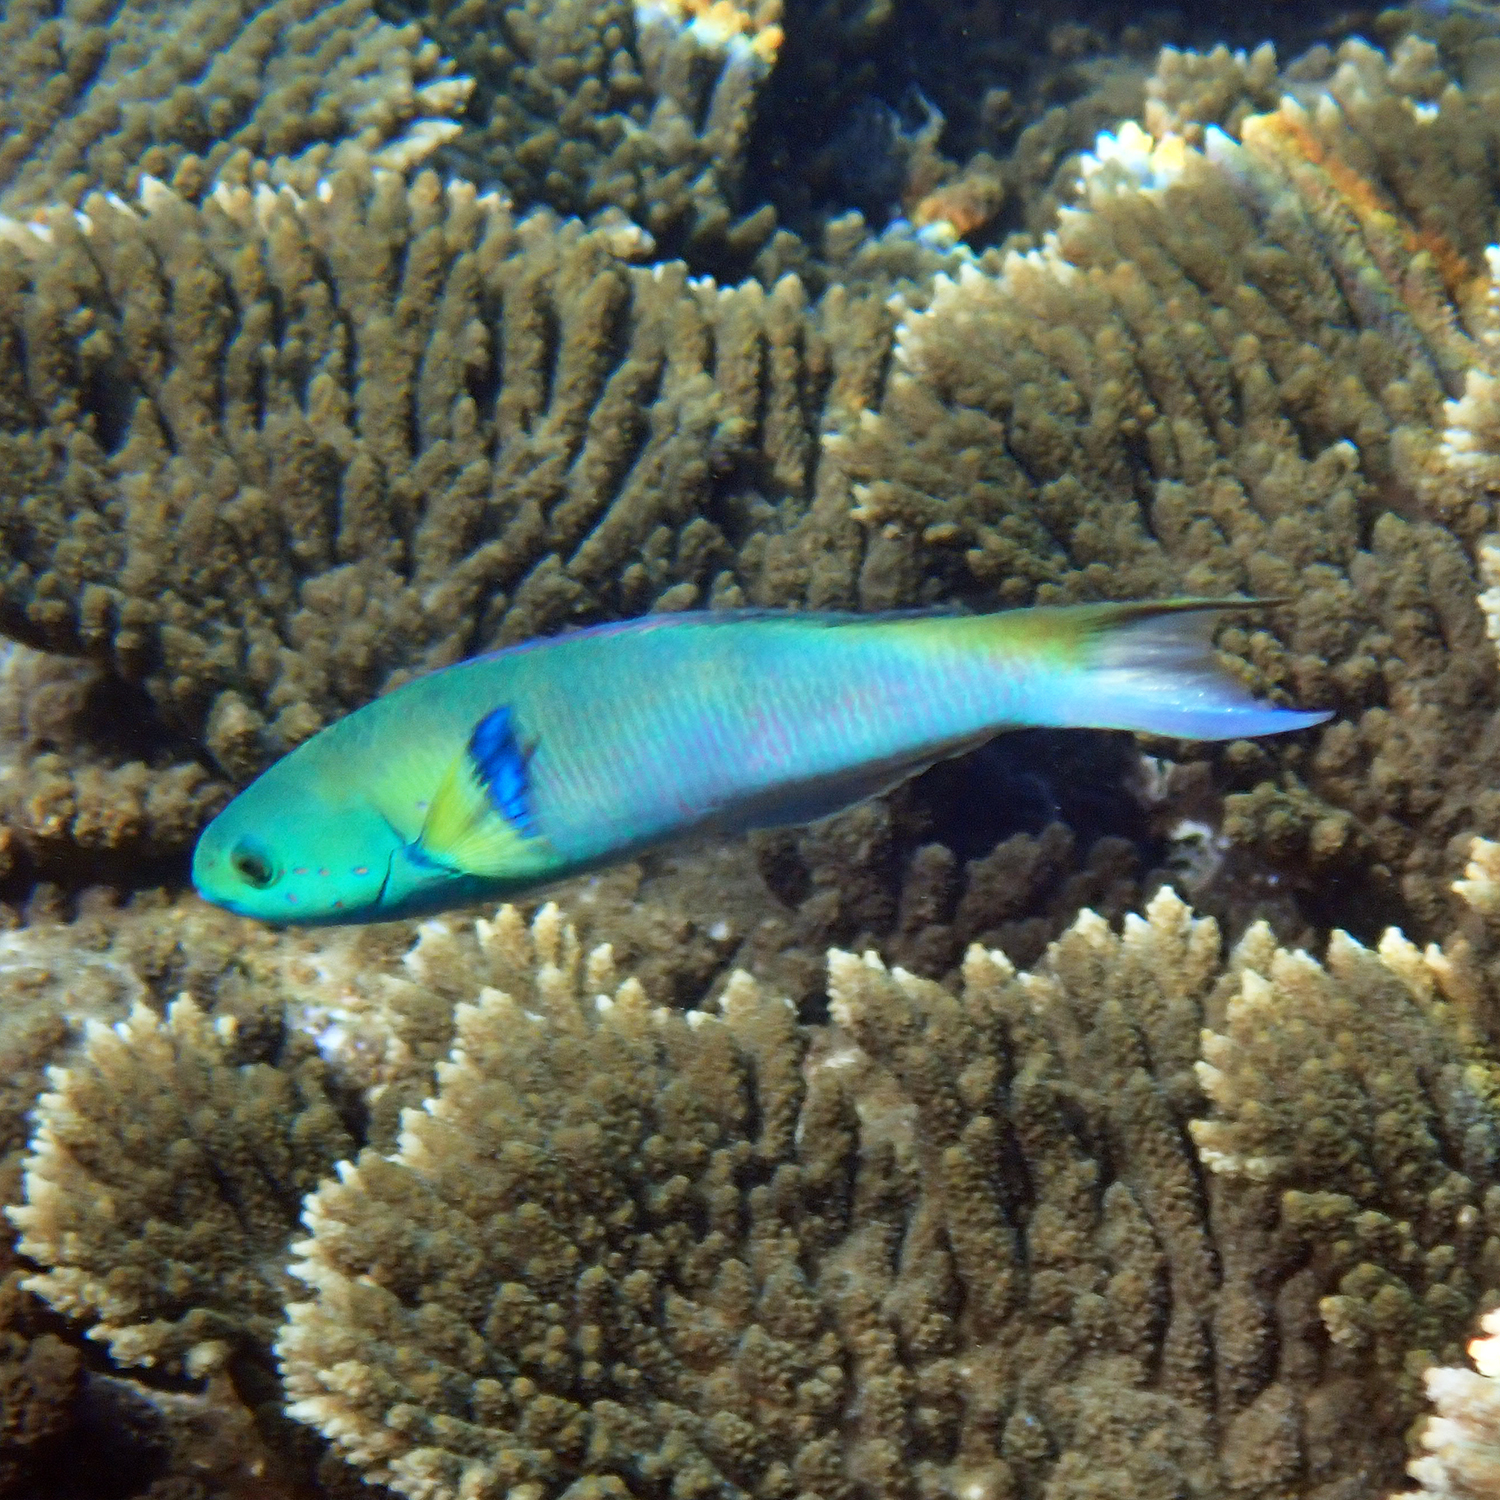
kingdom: Animalia
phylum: Chordata
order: Perciformes
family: Labridae
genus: Thalassoma
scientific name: Thalassoma amblycephalum
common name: Bluehead wrasse
